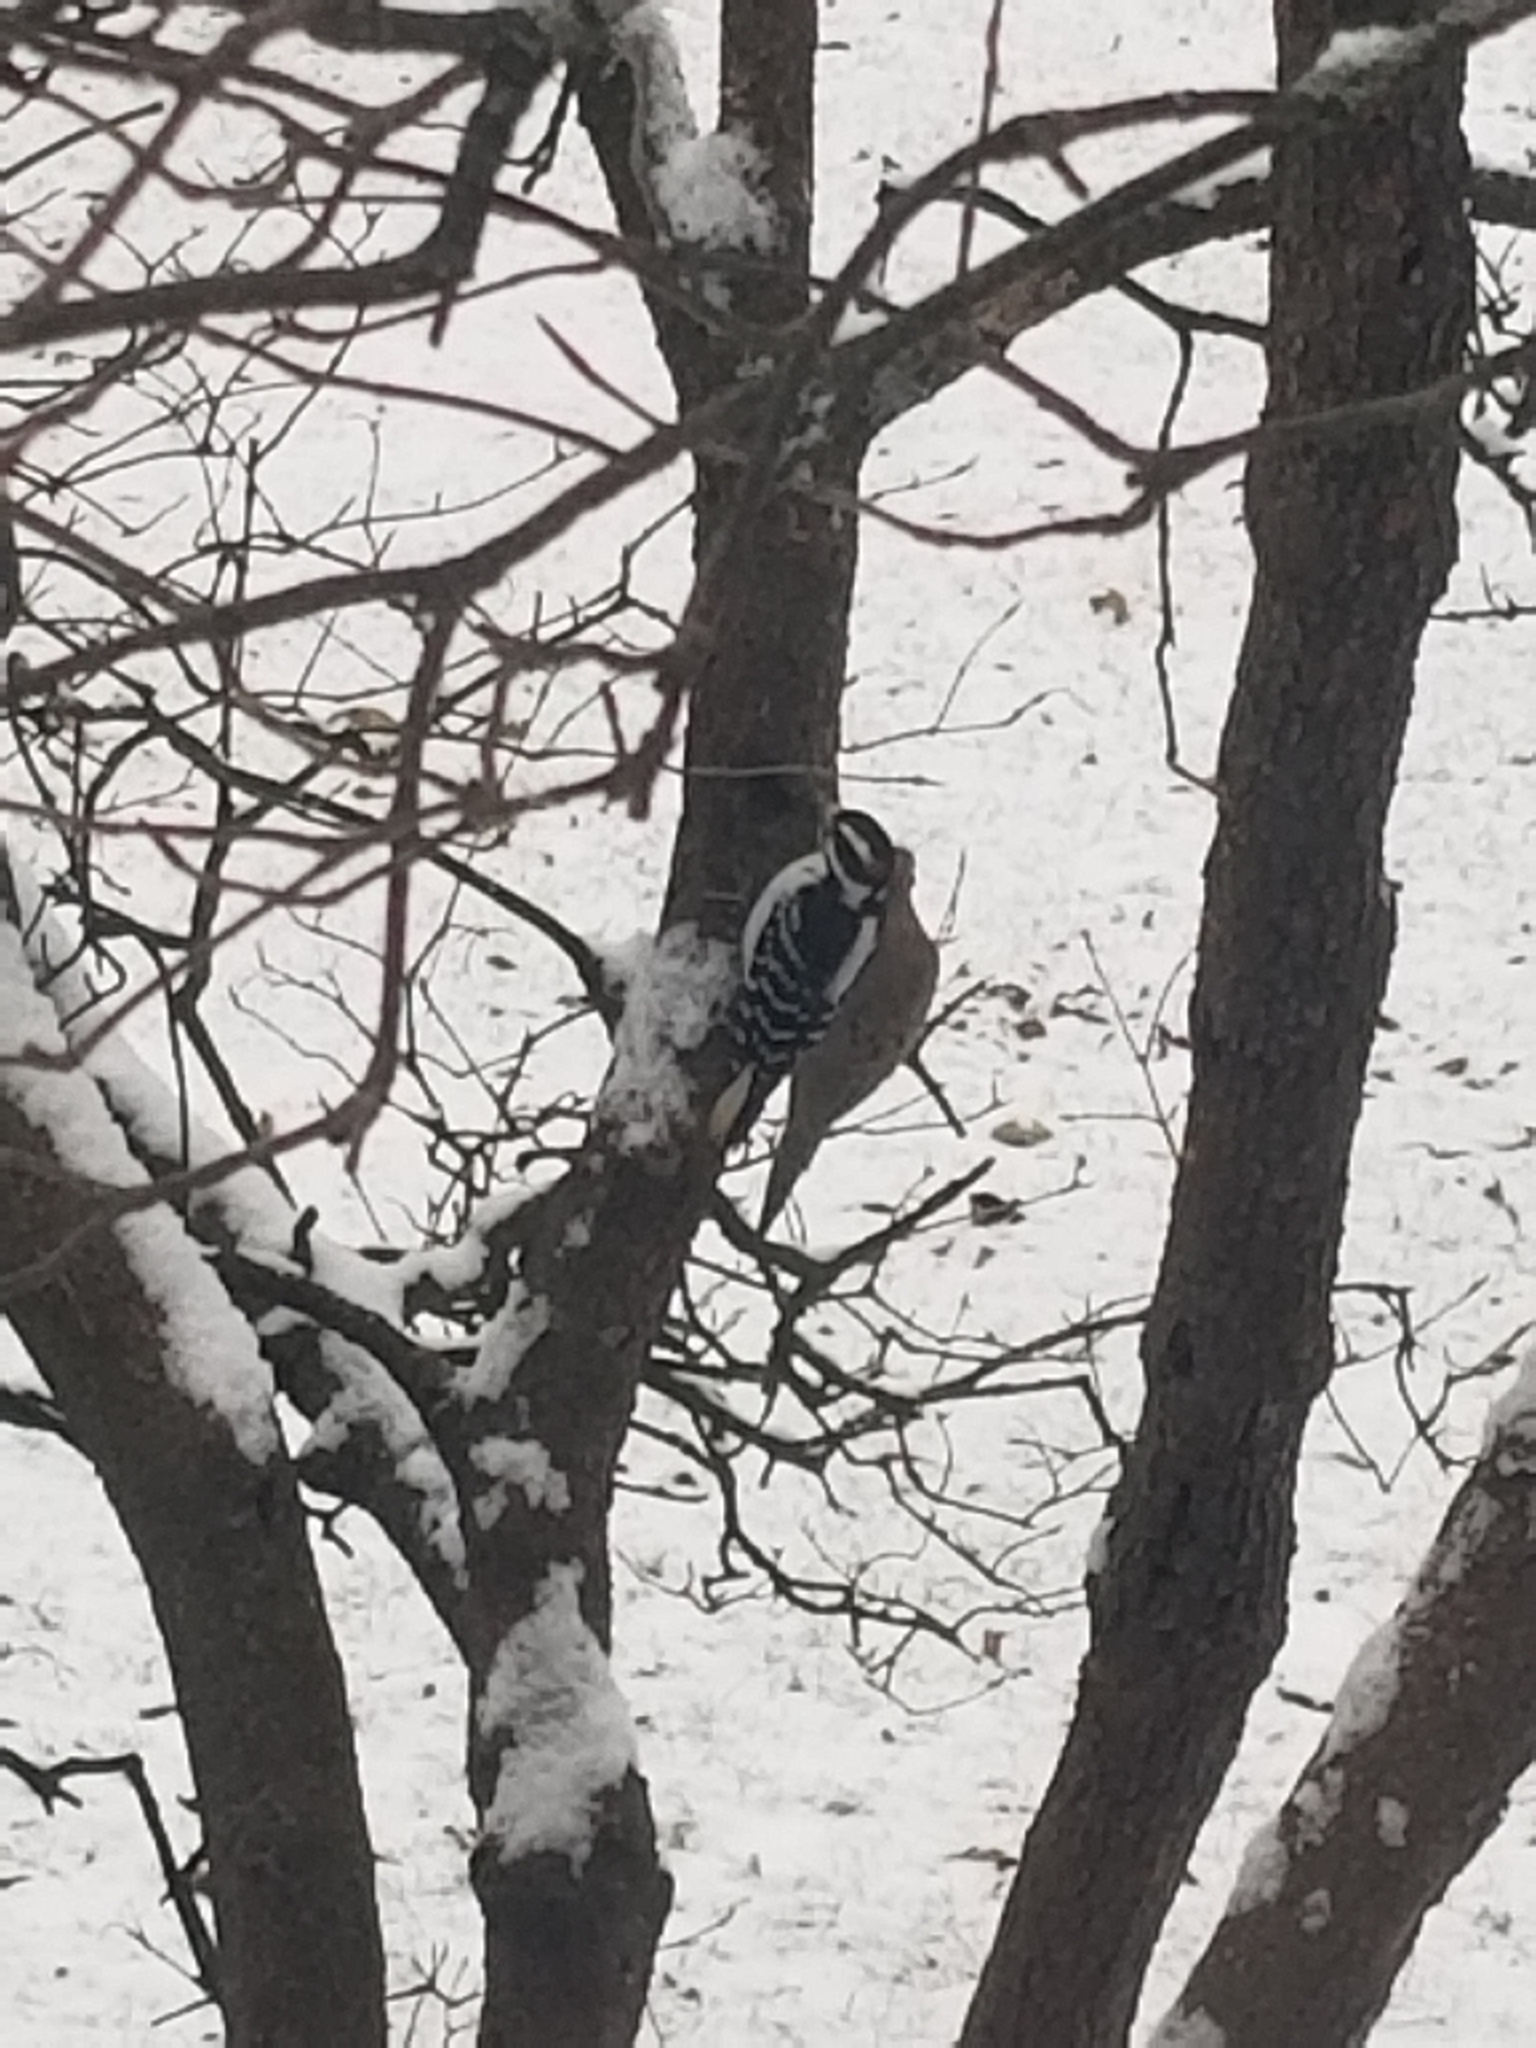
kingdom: Animalia
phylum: Chordata
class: Aves
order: Piciformes
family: Picidae
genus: Leuconotopicus
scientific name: Leuconotopicus villosus
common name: Hairy woodpecker
